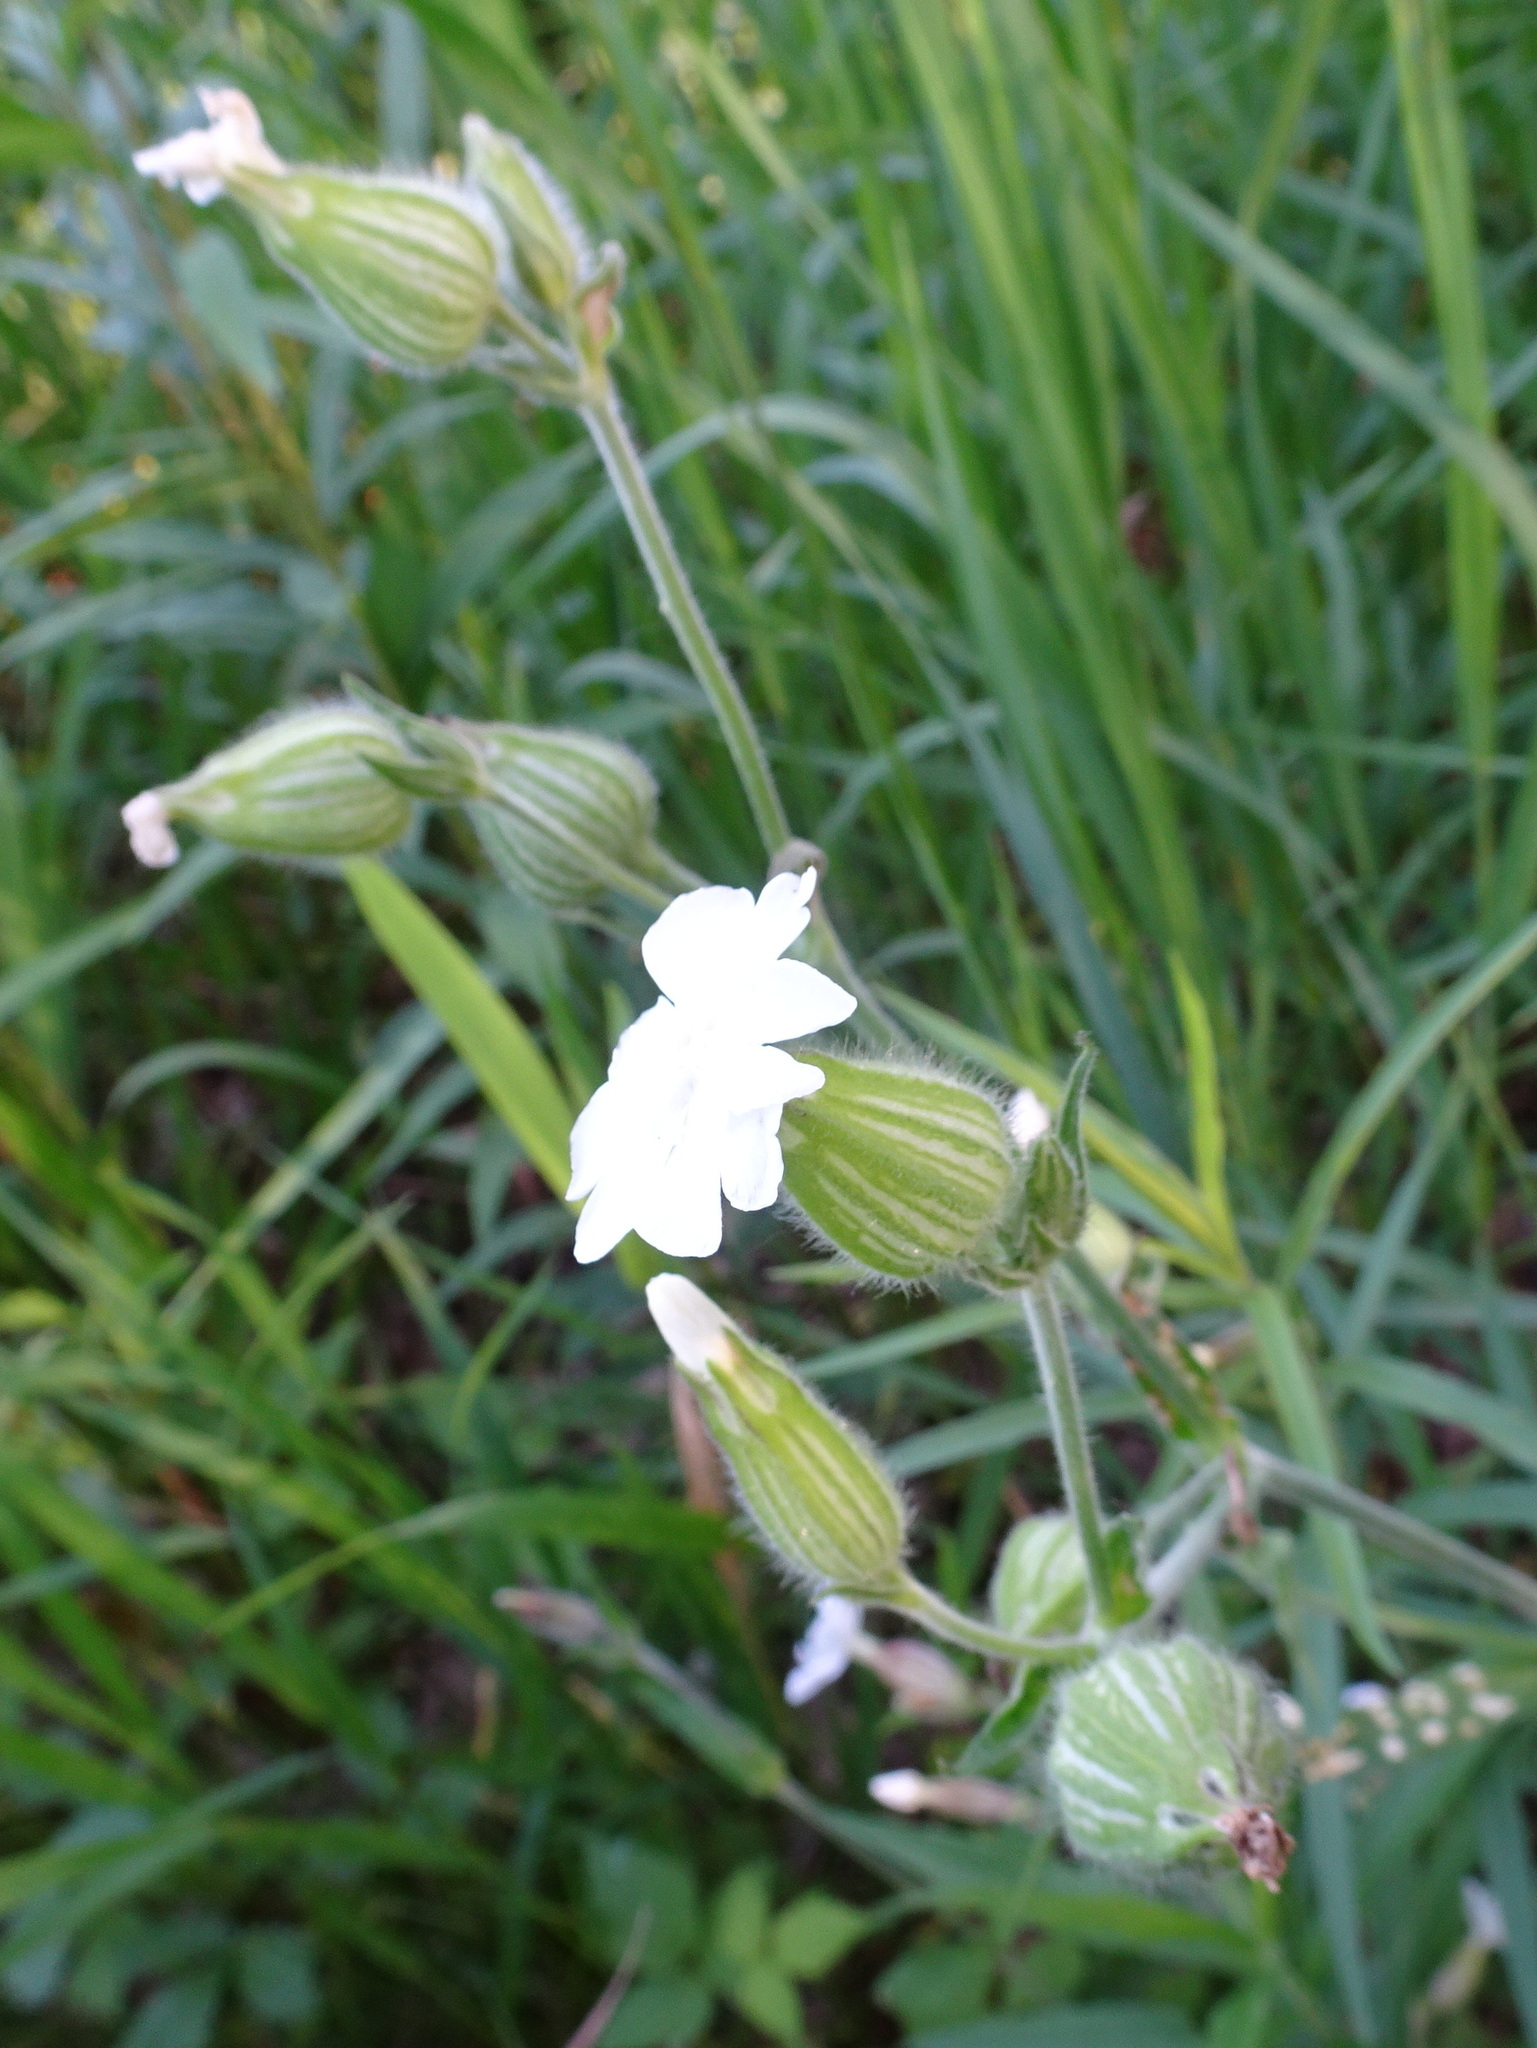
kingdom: Plantae
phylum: Tracheophyta
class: Magnoliopsida
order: Caryophyllales
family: Caryophyllaceae
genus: Silene
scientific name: Silene latifolia
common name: White campion
